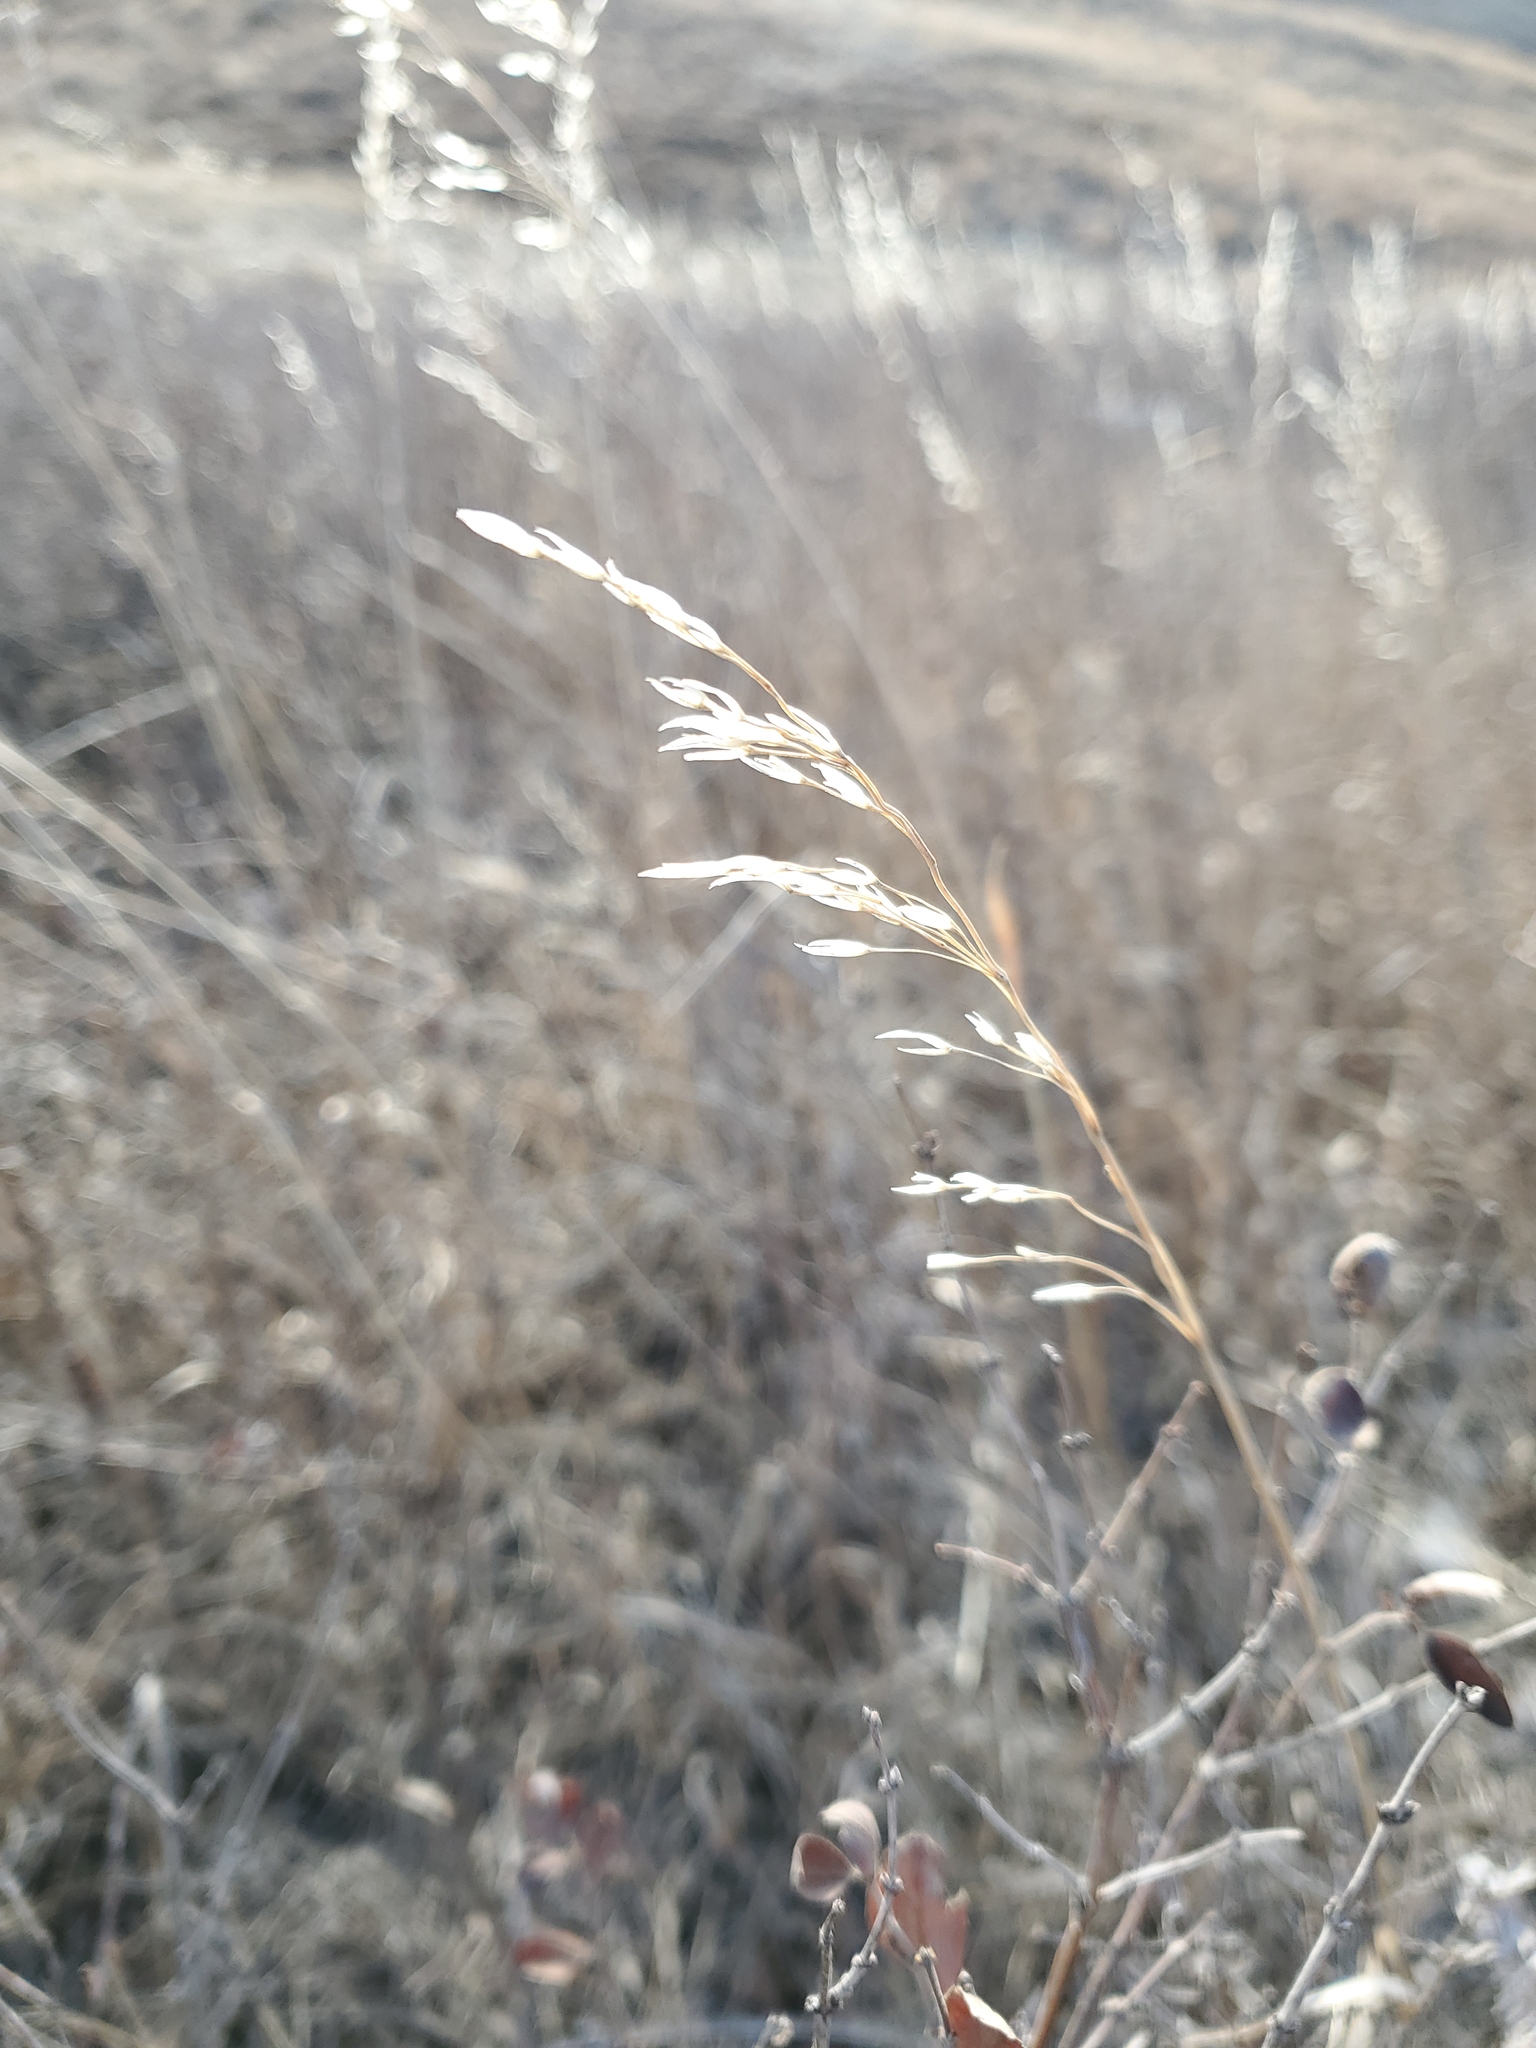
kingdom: Plantae
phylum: Tracheophyta
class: Liliopsida
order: Poales
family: Poaceae
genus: Bromus
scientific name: Bromus inermis
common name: Smooth brome
